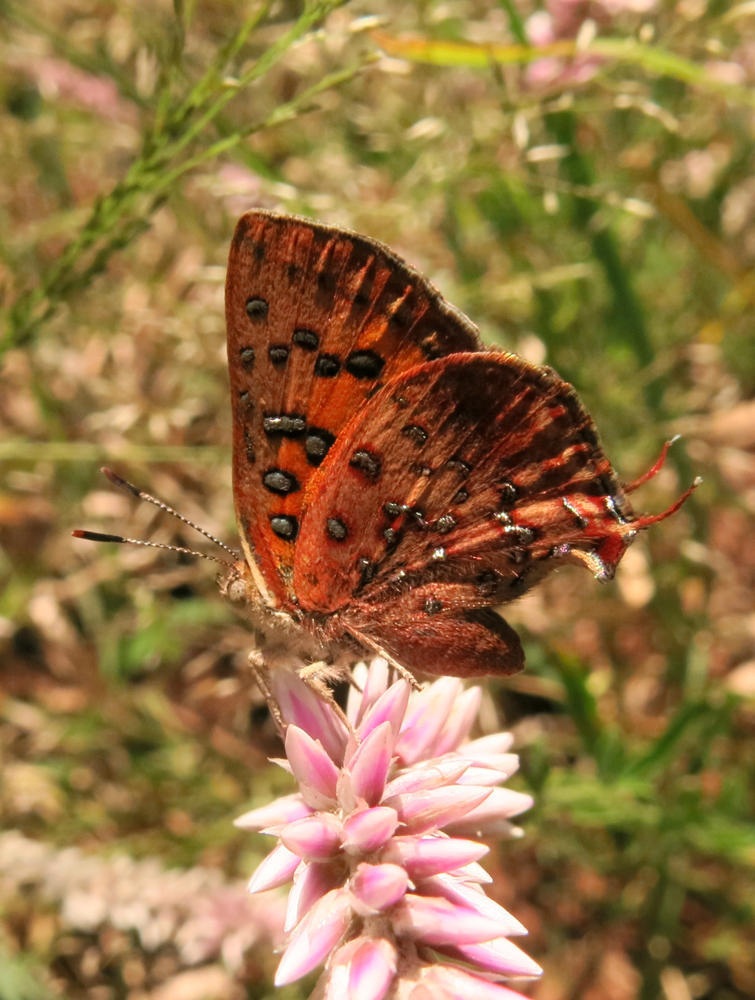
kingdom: Animalia
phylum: Arthropoda
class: Insecta
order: Lepidoptera
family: Lycaenidae
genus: Axiocerses
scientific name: Axiocerses perion
